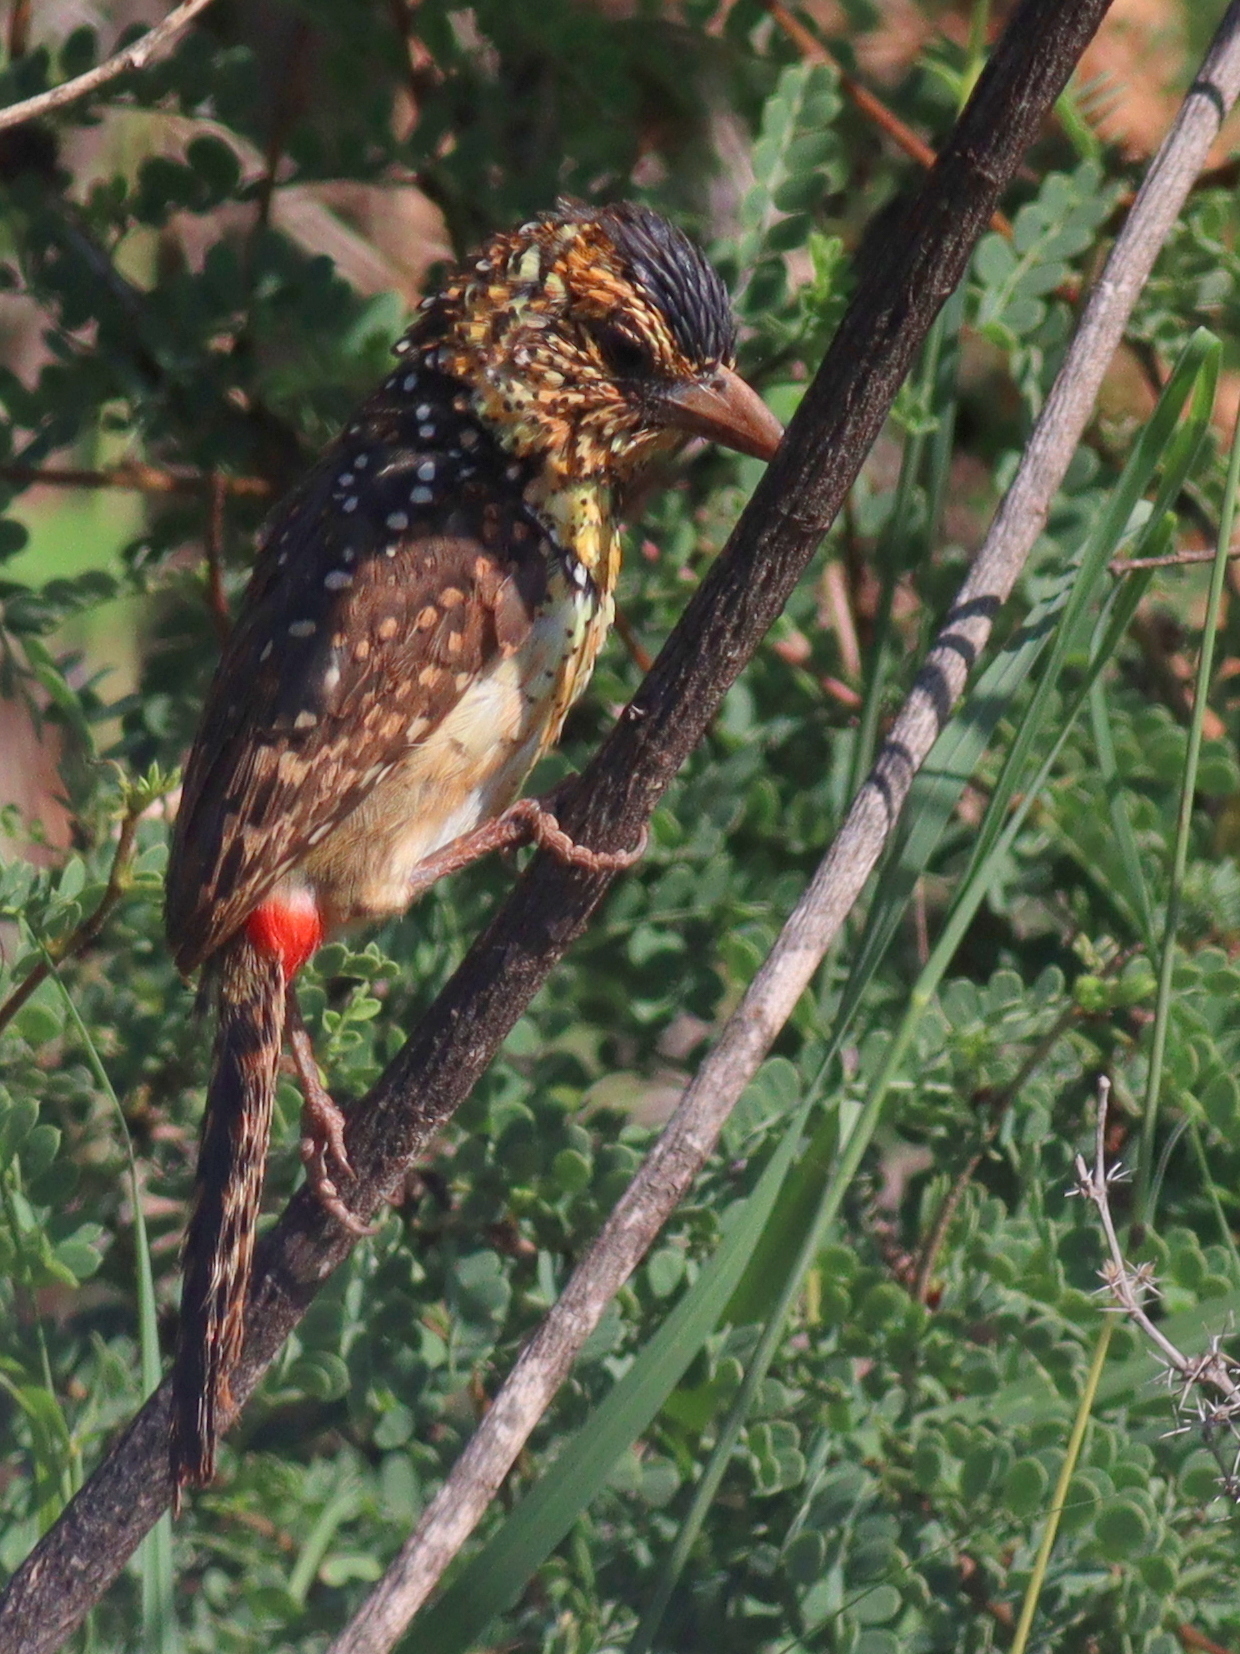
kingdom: Animalia
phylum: Chordata
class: Aves
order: Piciformes
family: Lybiidae
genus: Trachyphonus
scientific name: Trachyphonus darnaudii
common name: D'arnaud's barbet
